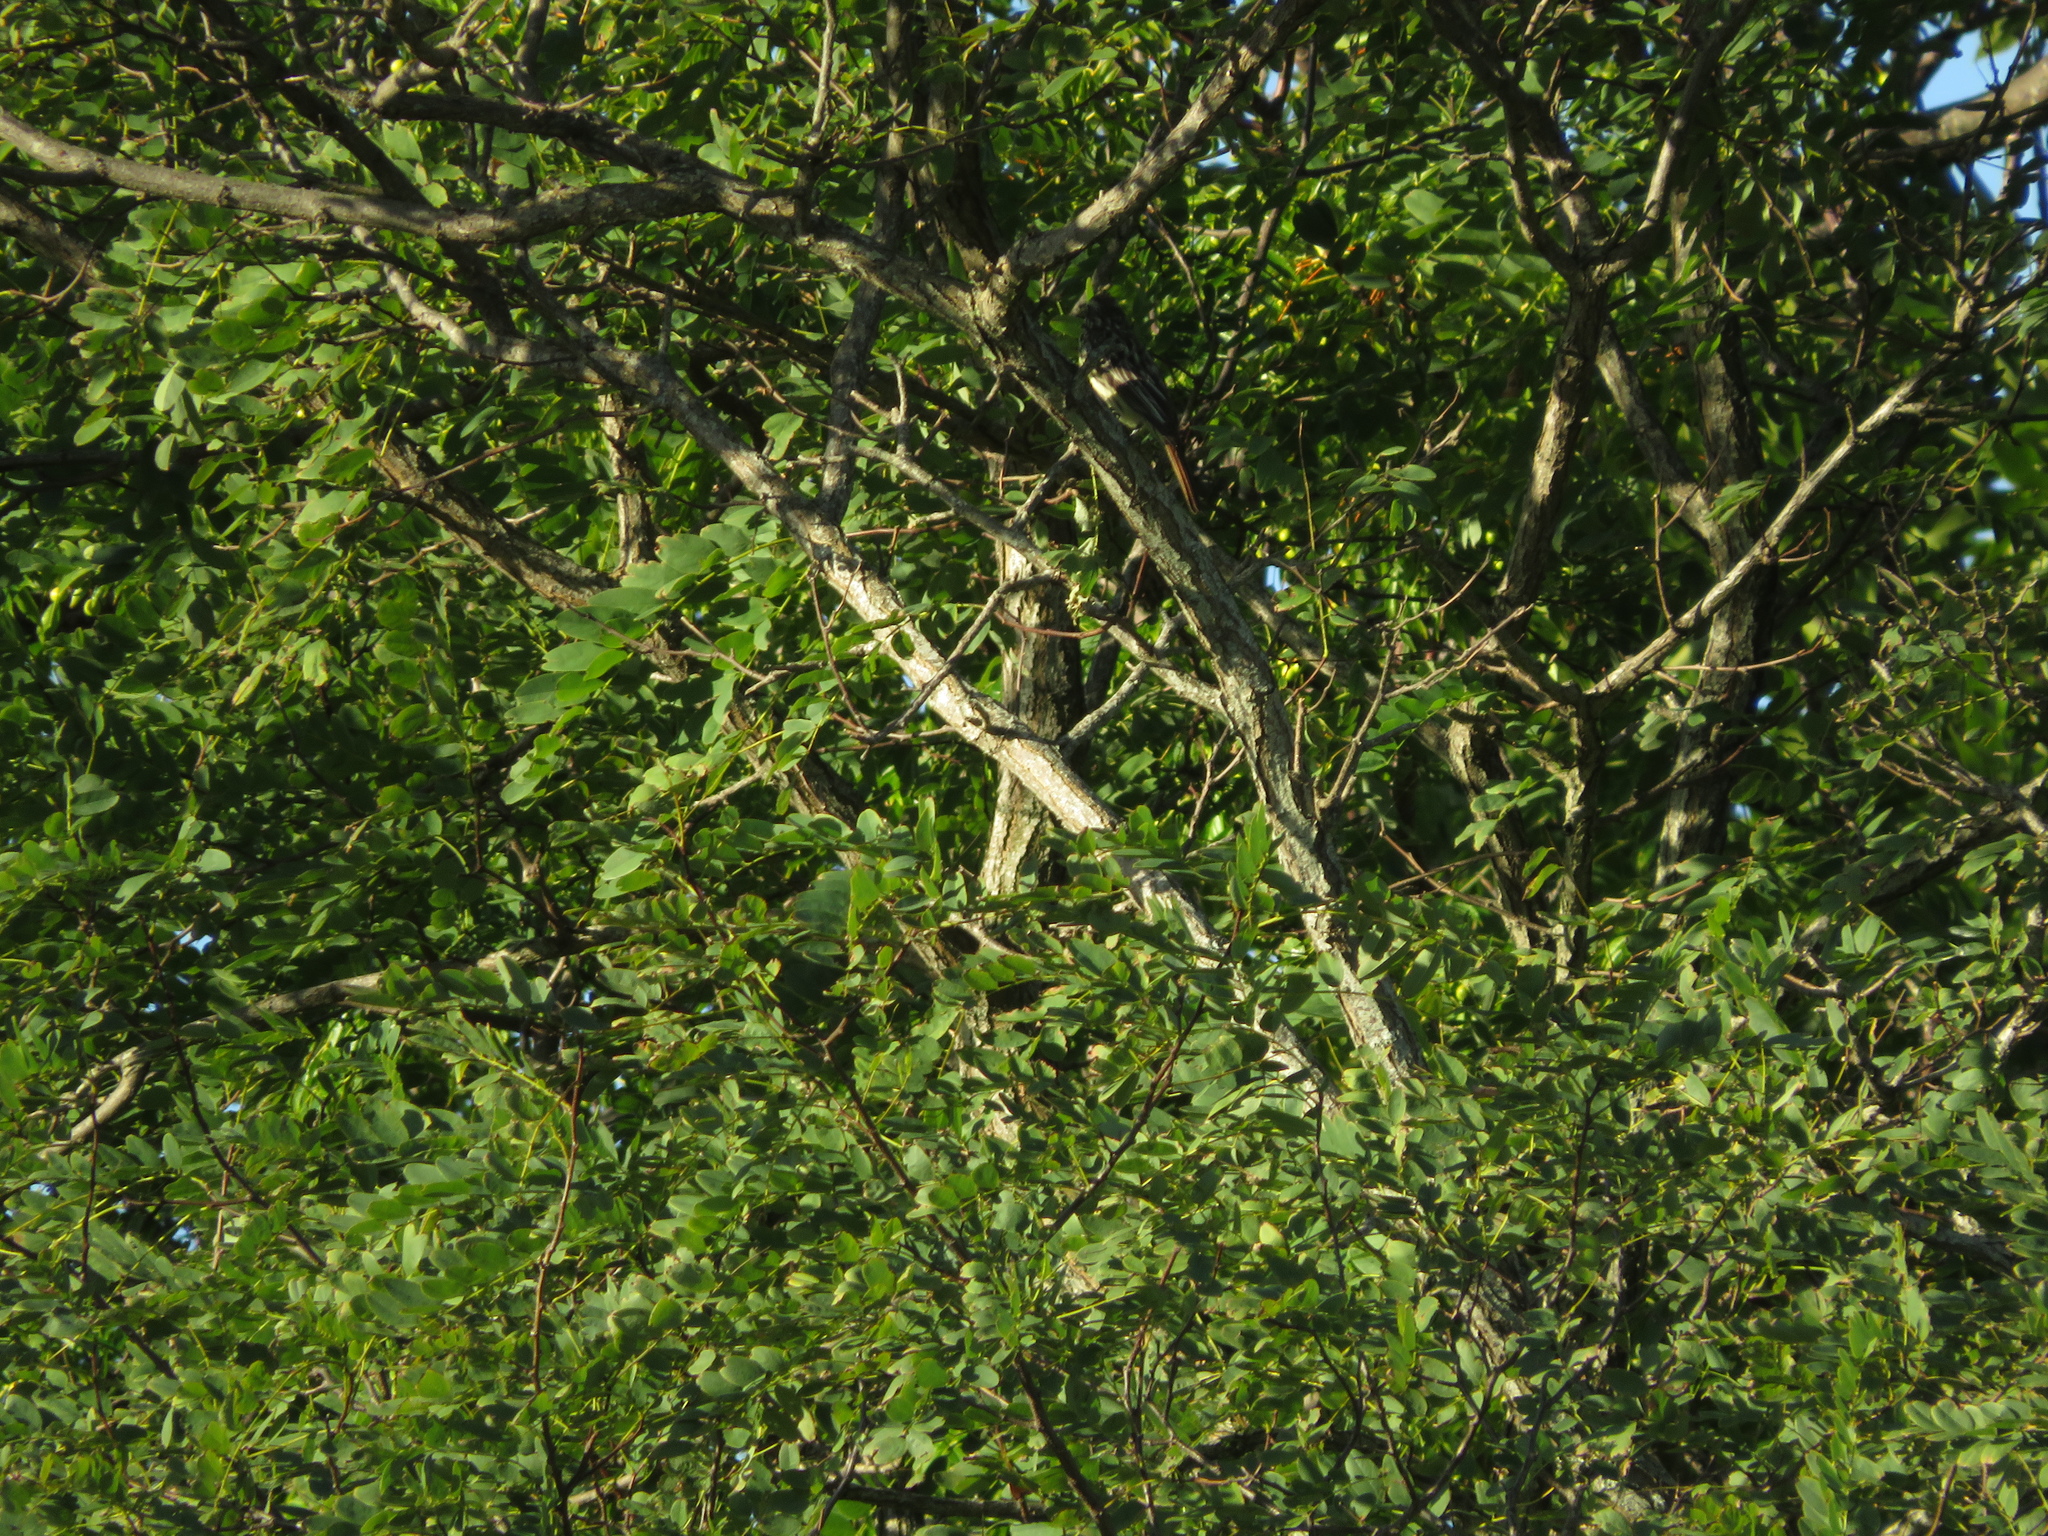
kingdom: Animalia
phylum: Chordata
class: Aves
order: Passeriformes
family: Tyrannidae
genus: Myiodynastes
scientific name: Myiodynastes maculatus
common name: Streaked flycatcher
